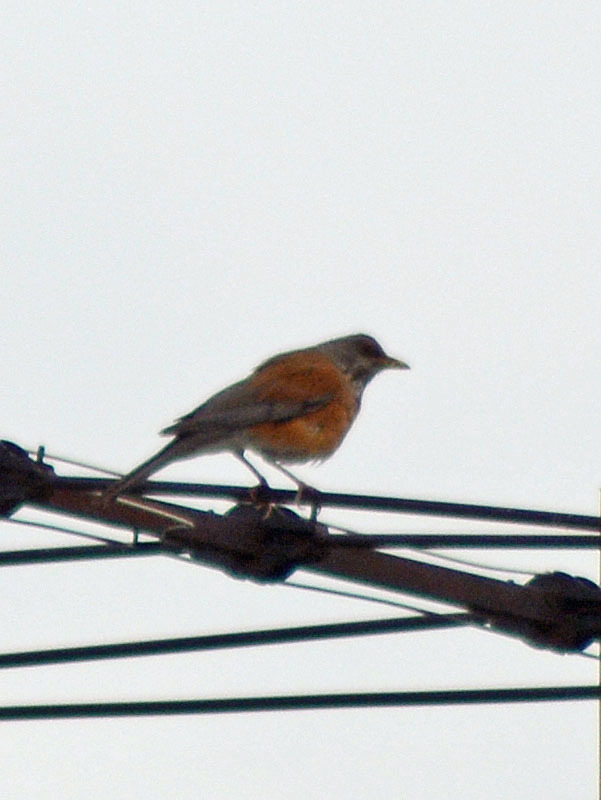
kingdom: Animalia
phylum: Chordata
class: Aves
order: Passeriformes
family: Turdidae
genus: Turdus
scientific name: Turdus rufopalliatus
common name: Rufous-backed robin
